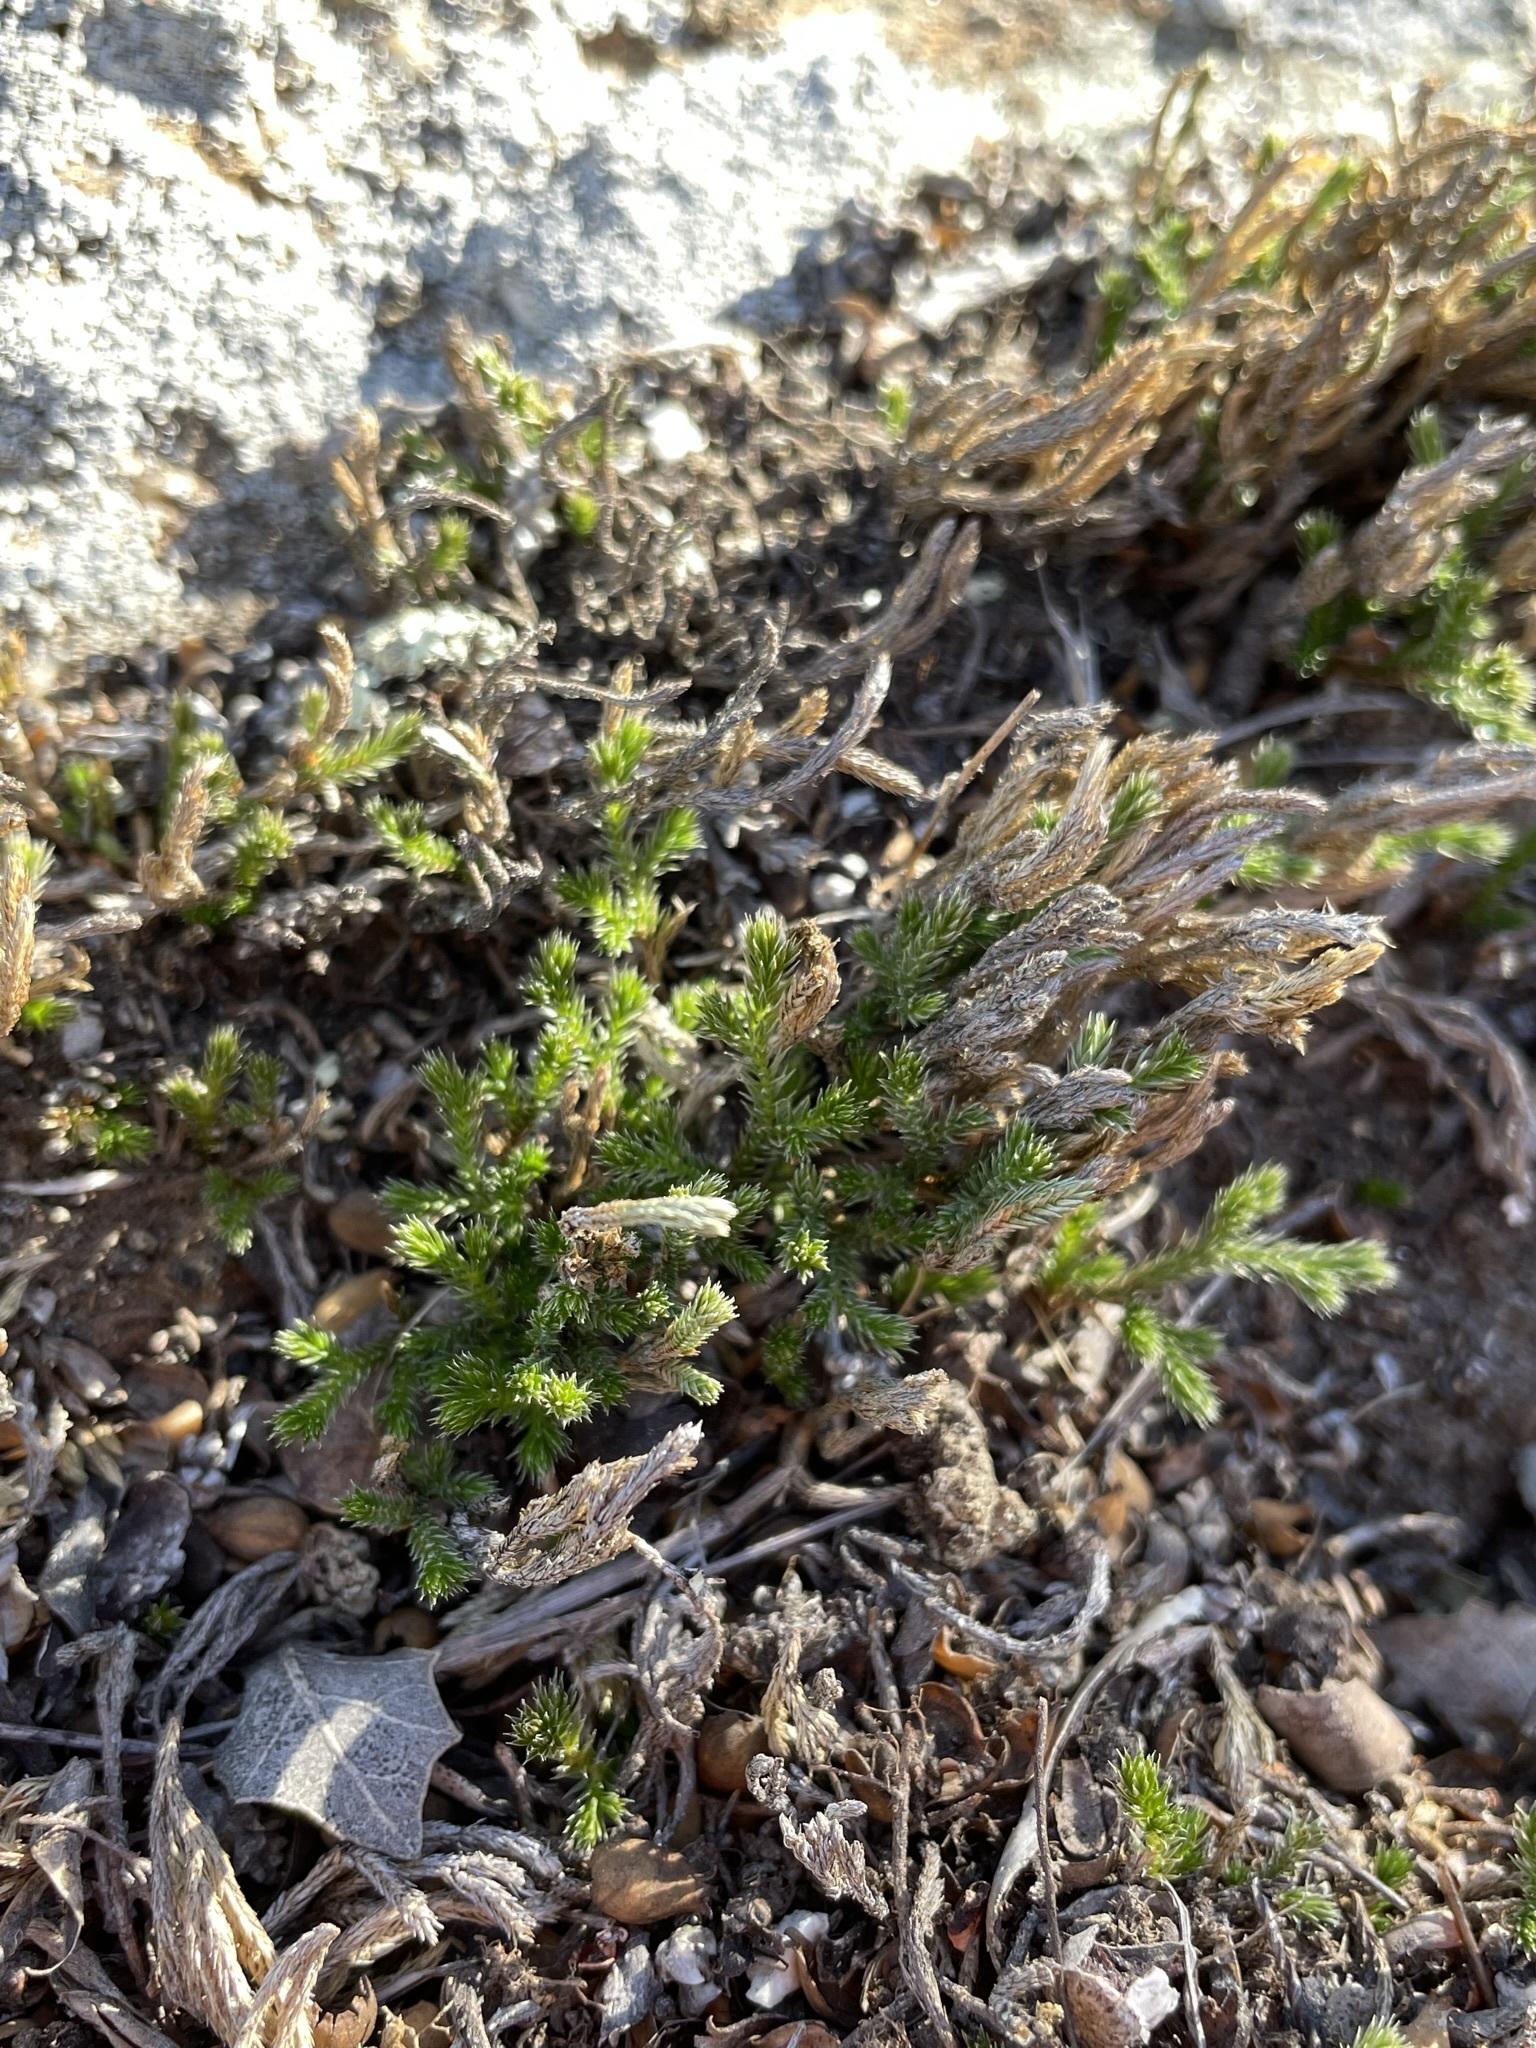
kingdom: Plantae
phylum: Tracheophyta
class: Lycopodiopsida
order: Selaginellales
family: Selaginellaceae
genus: Selaginella
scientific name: Selaginella bigelovii
